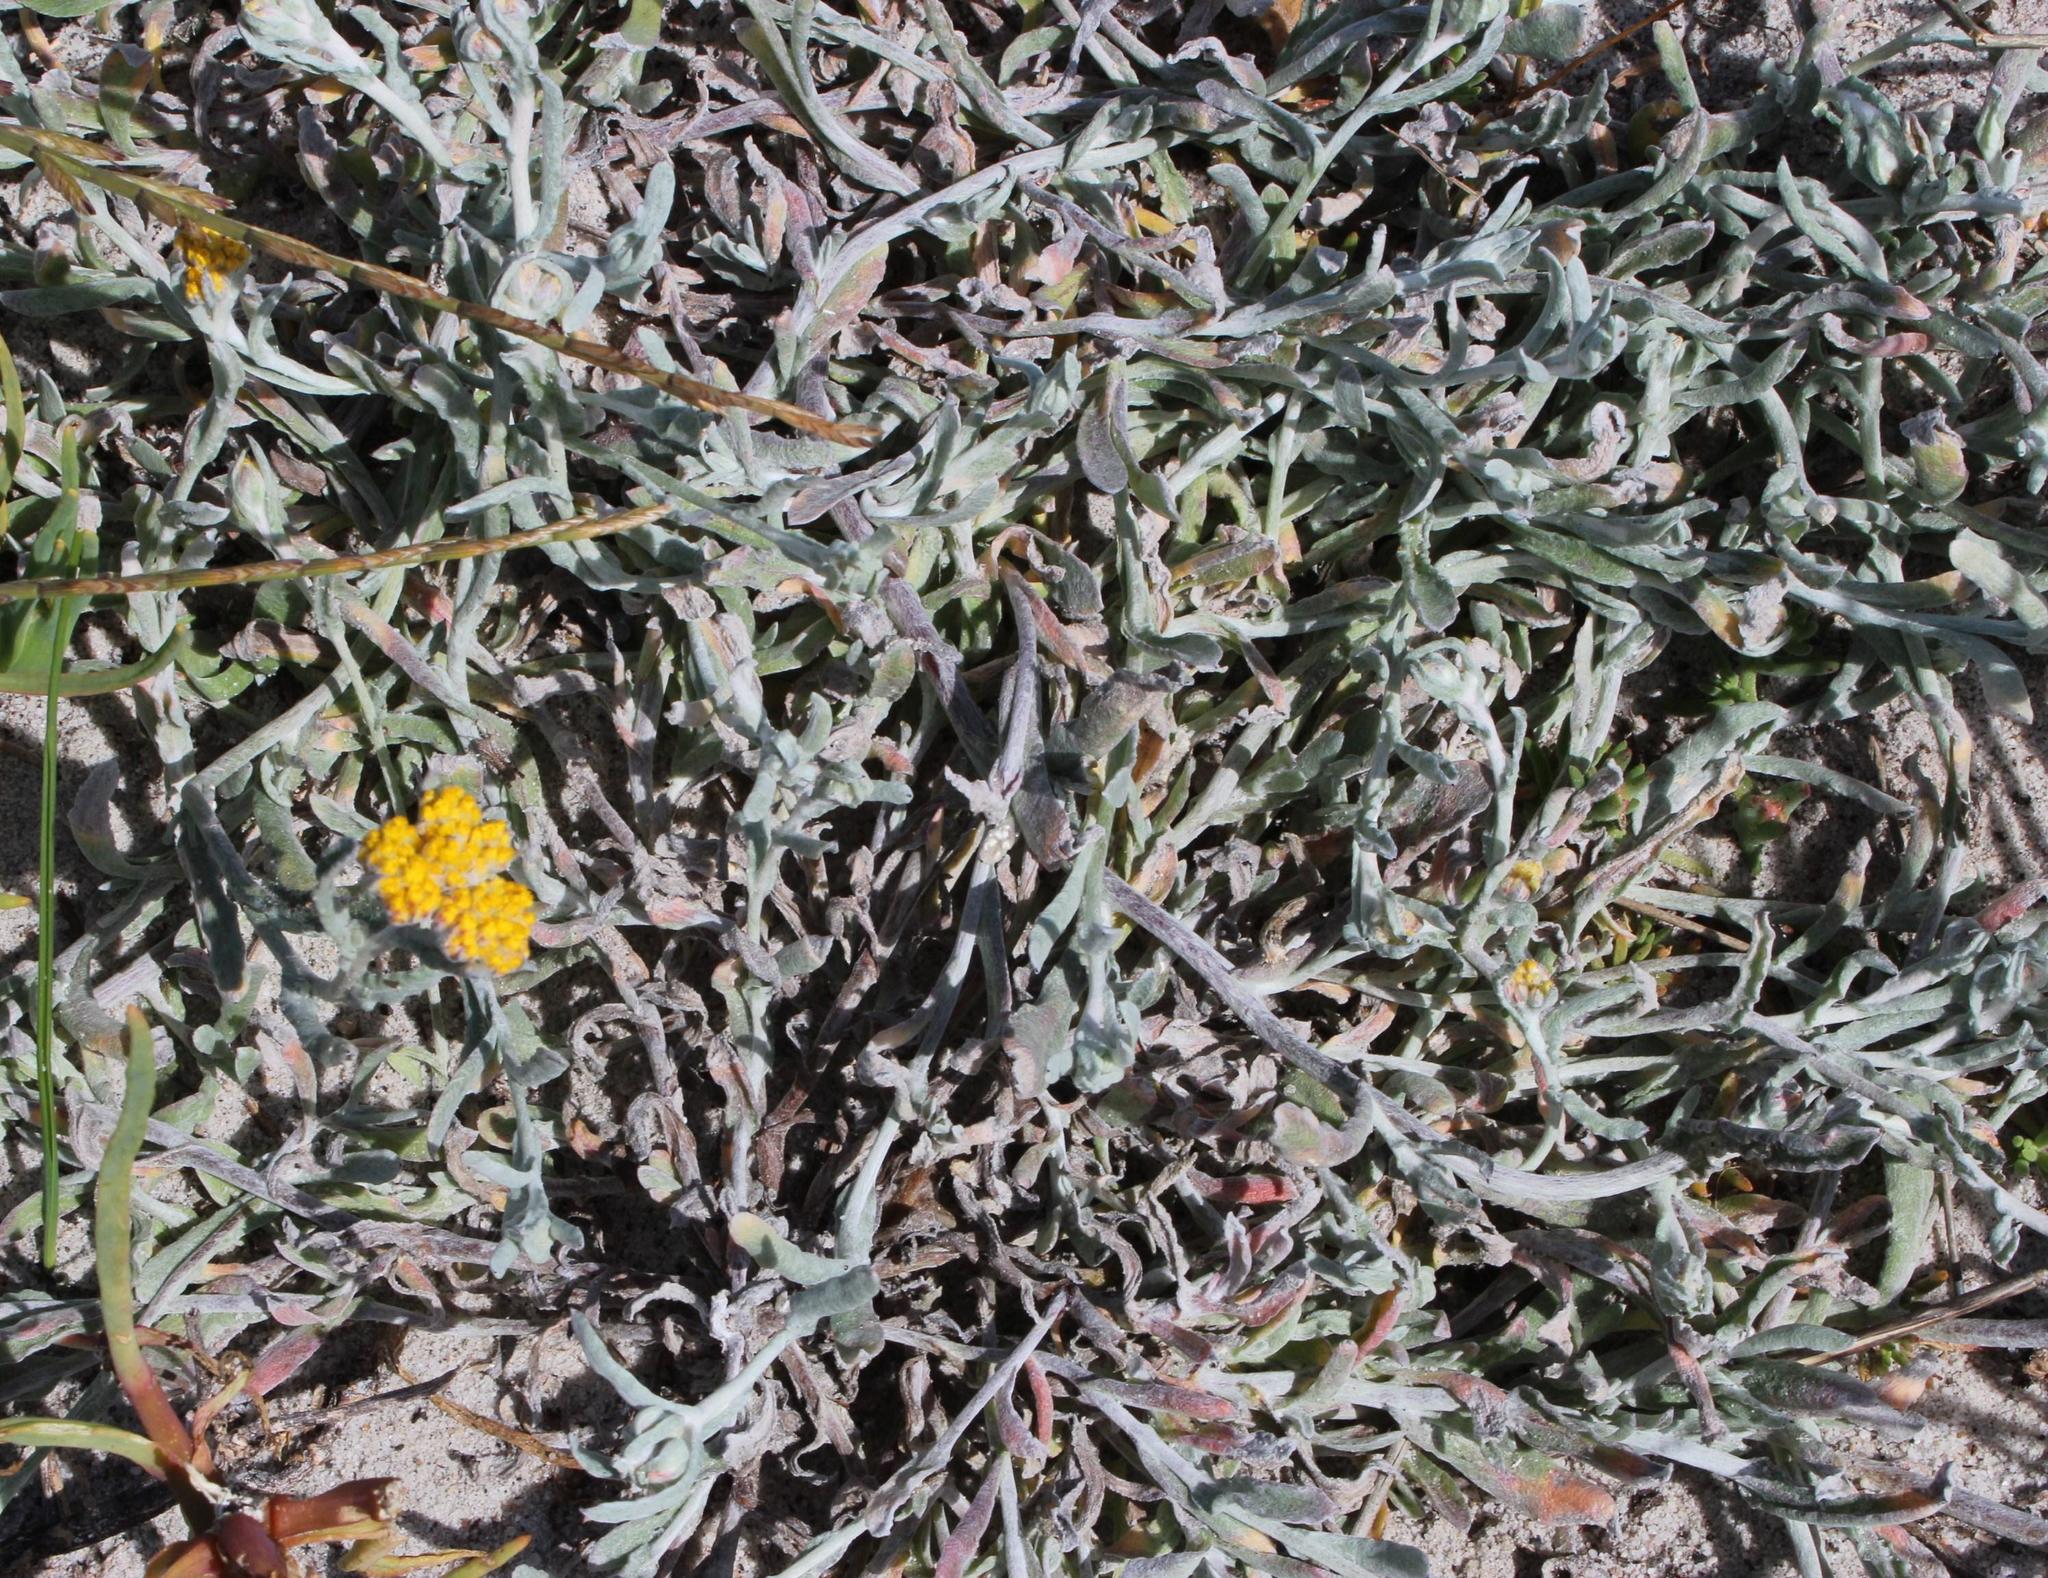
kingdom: Plantae
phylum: Tracheophyta
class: Magnoliopsida
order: Asterales
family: Asteraceae
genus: Helichrysum
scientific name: Helichrysum moeserianum
